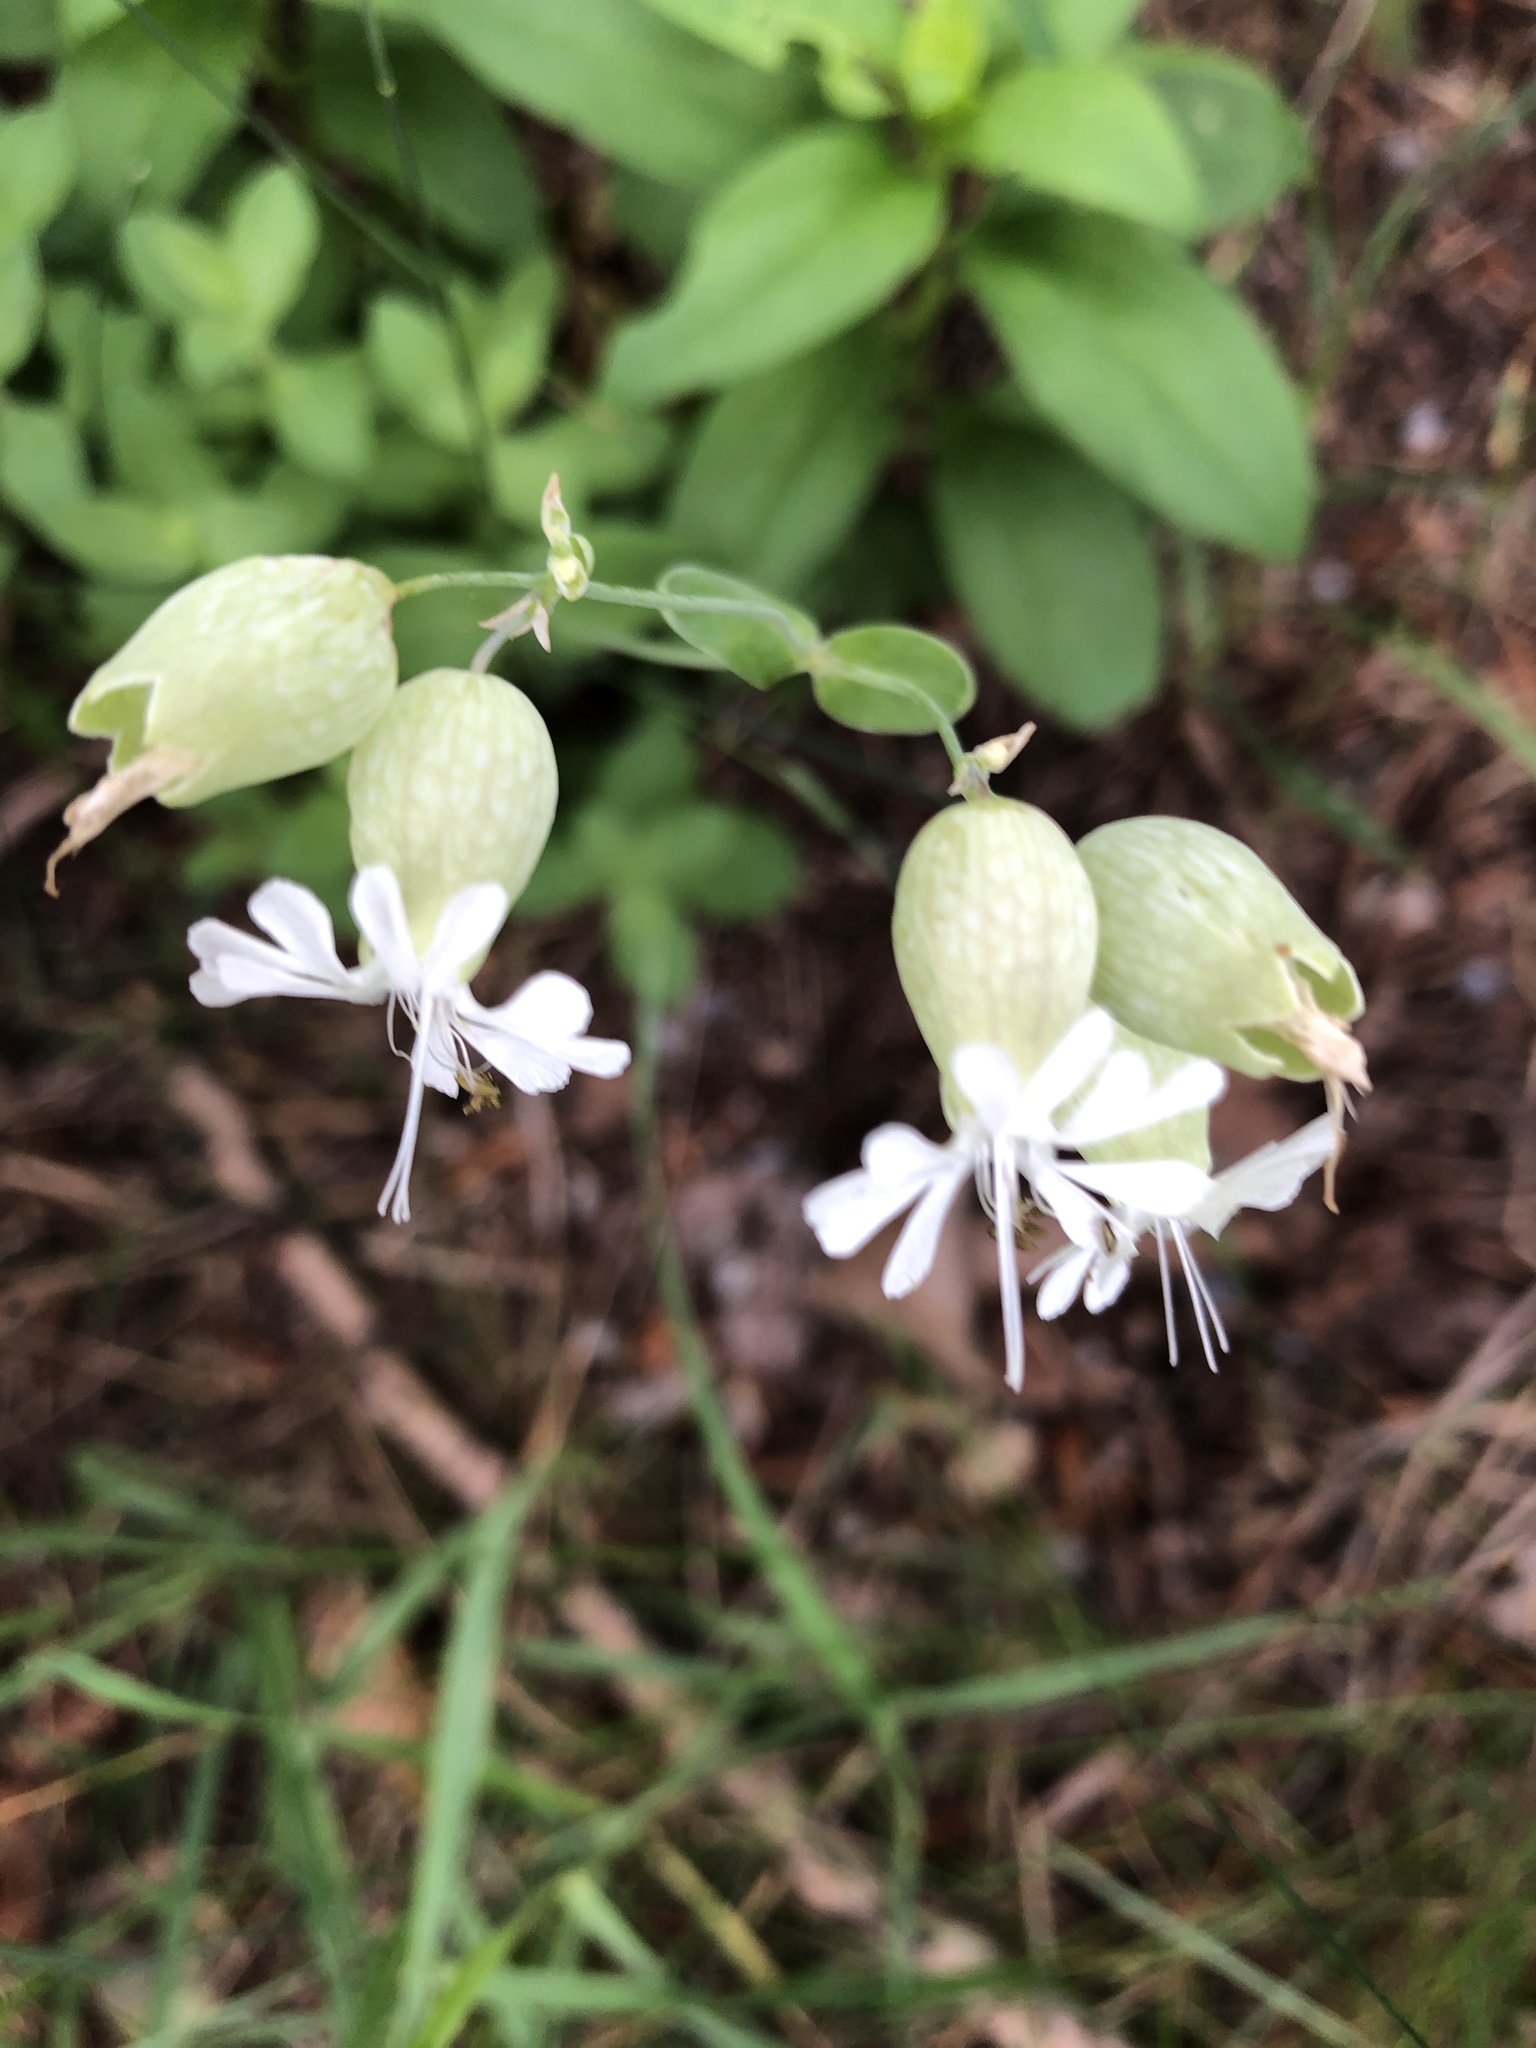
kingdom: Plantae
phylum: Tracheophyta
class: Magnoliopsida
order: Caryophyllales
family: Caryophyllaceae
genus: Silene
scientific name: Silene vulgaris
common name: Bladder campion
